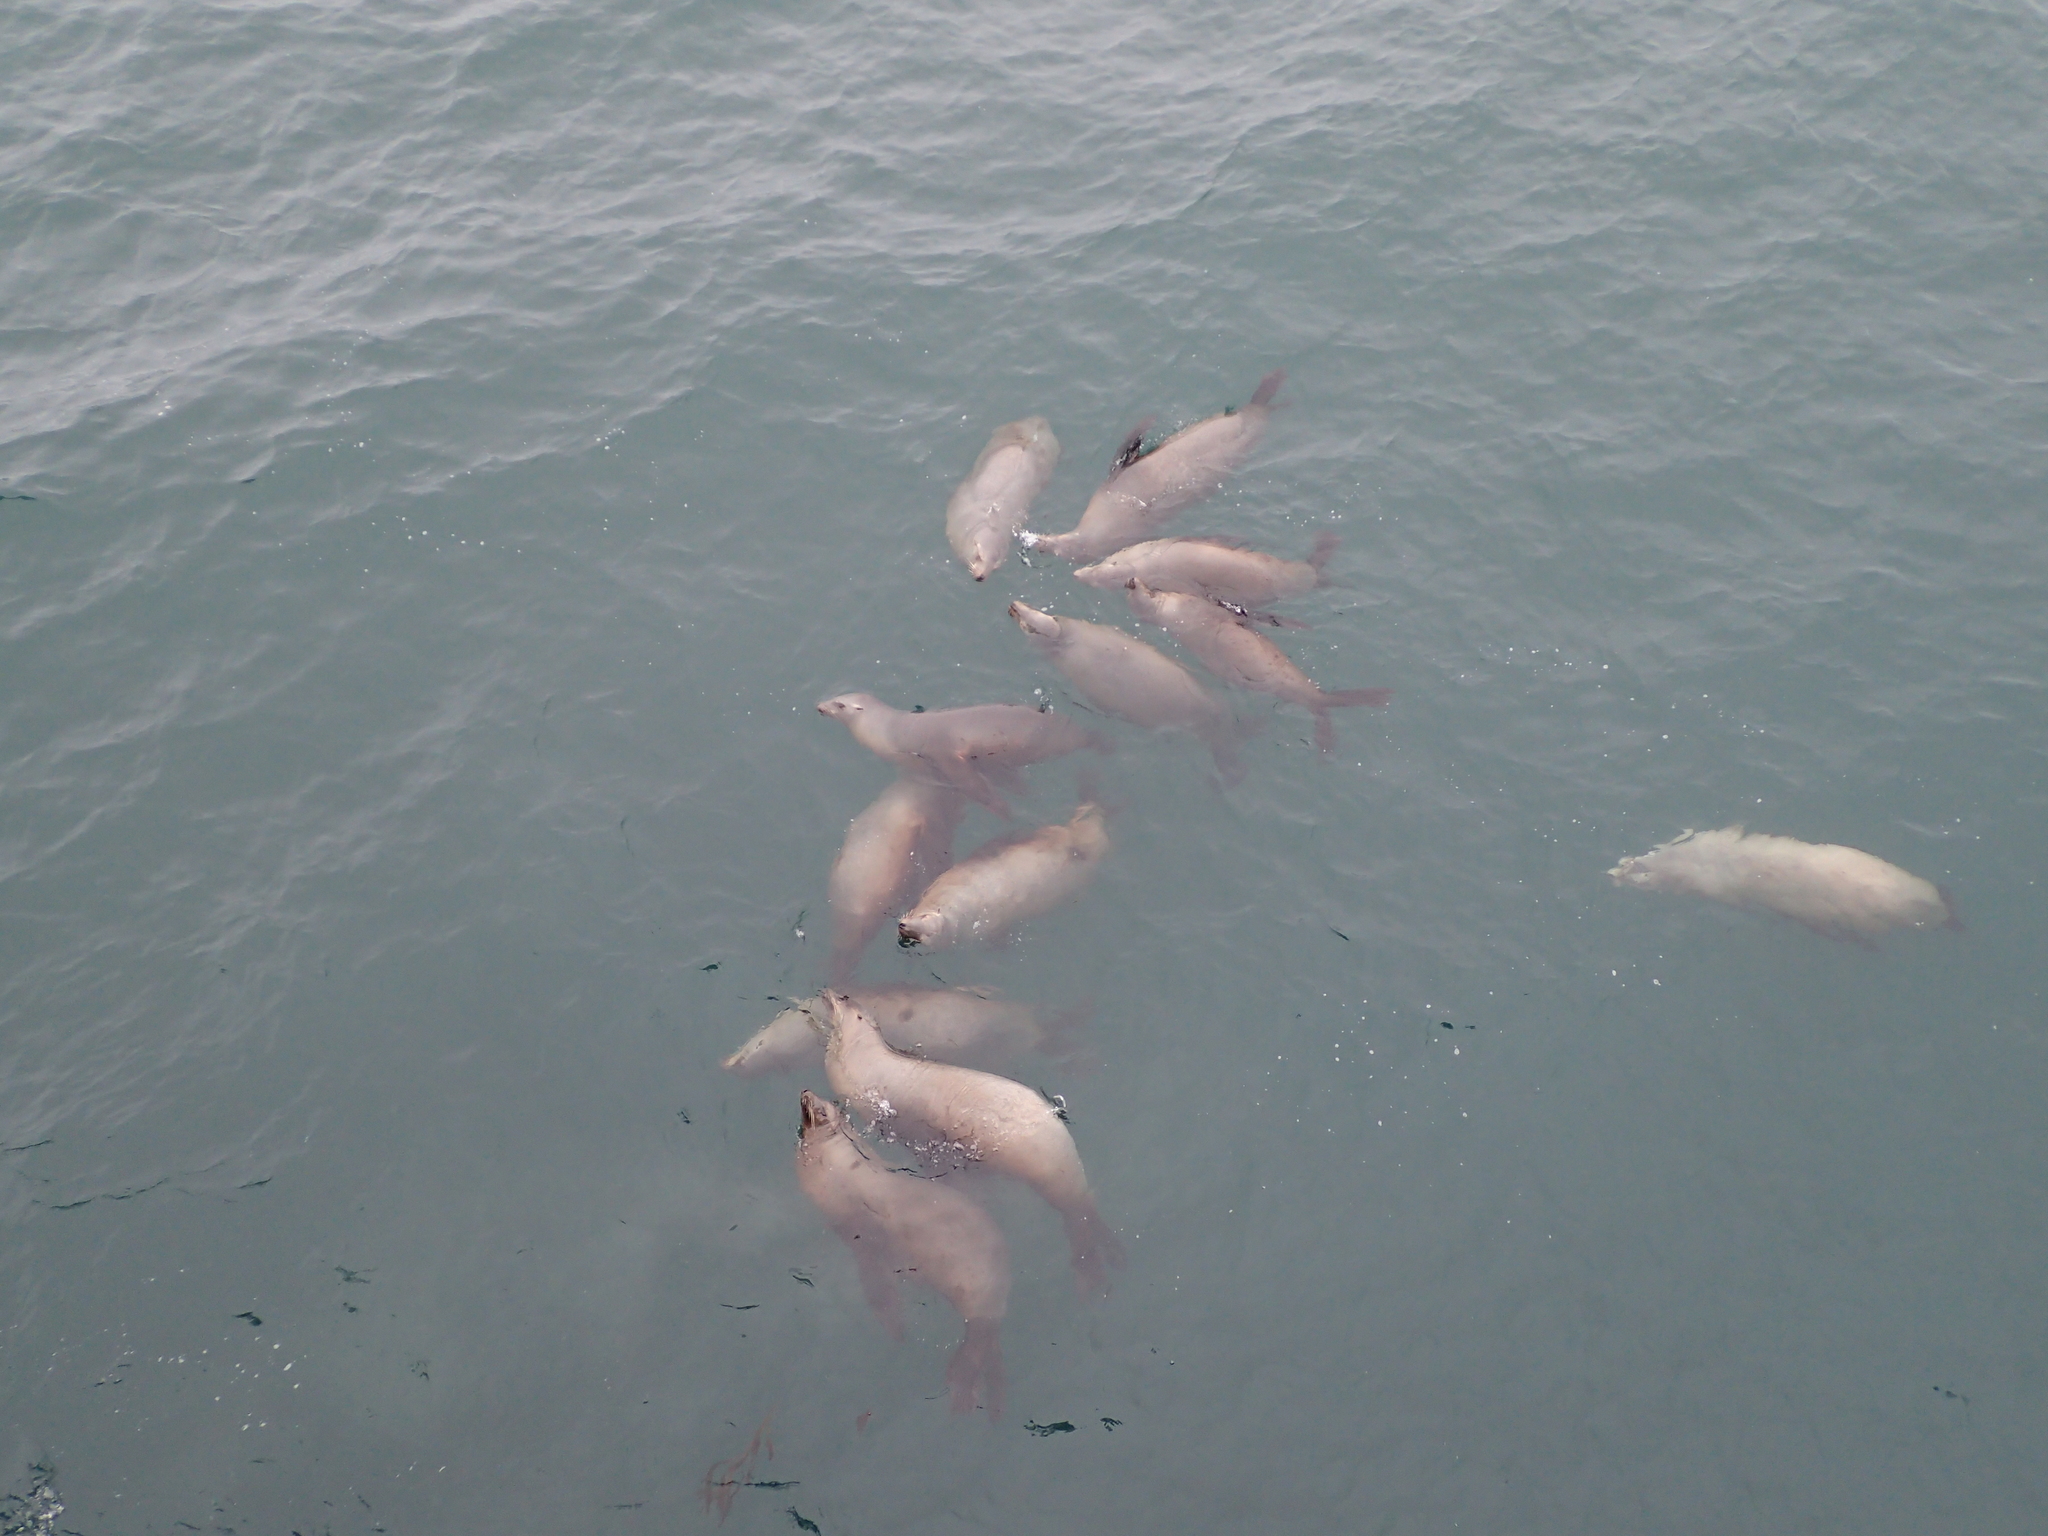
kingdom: Animalia
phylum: Chordata
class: Mammalia
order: Carnivora
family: Otariidae
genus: Zalophus
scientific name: Zalophus californianus
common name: California sea lion
